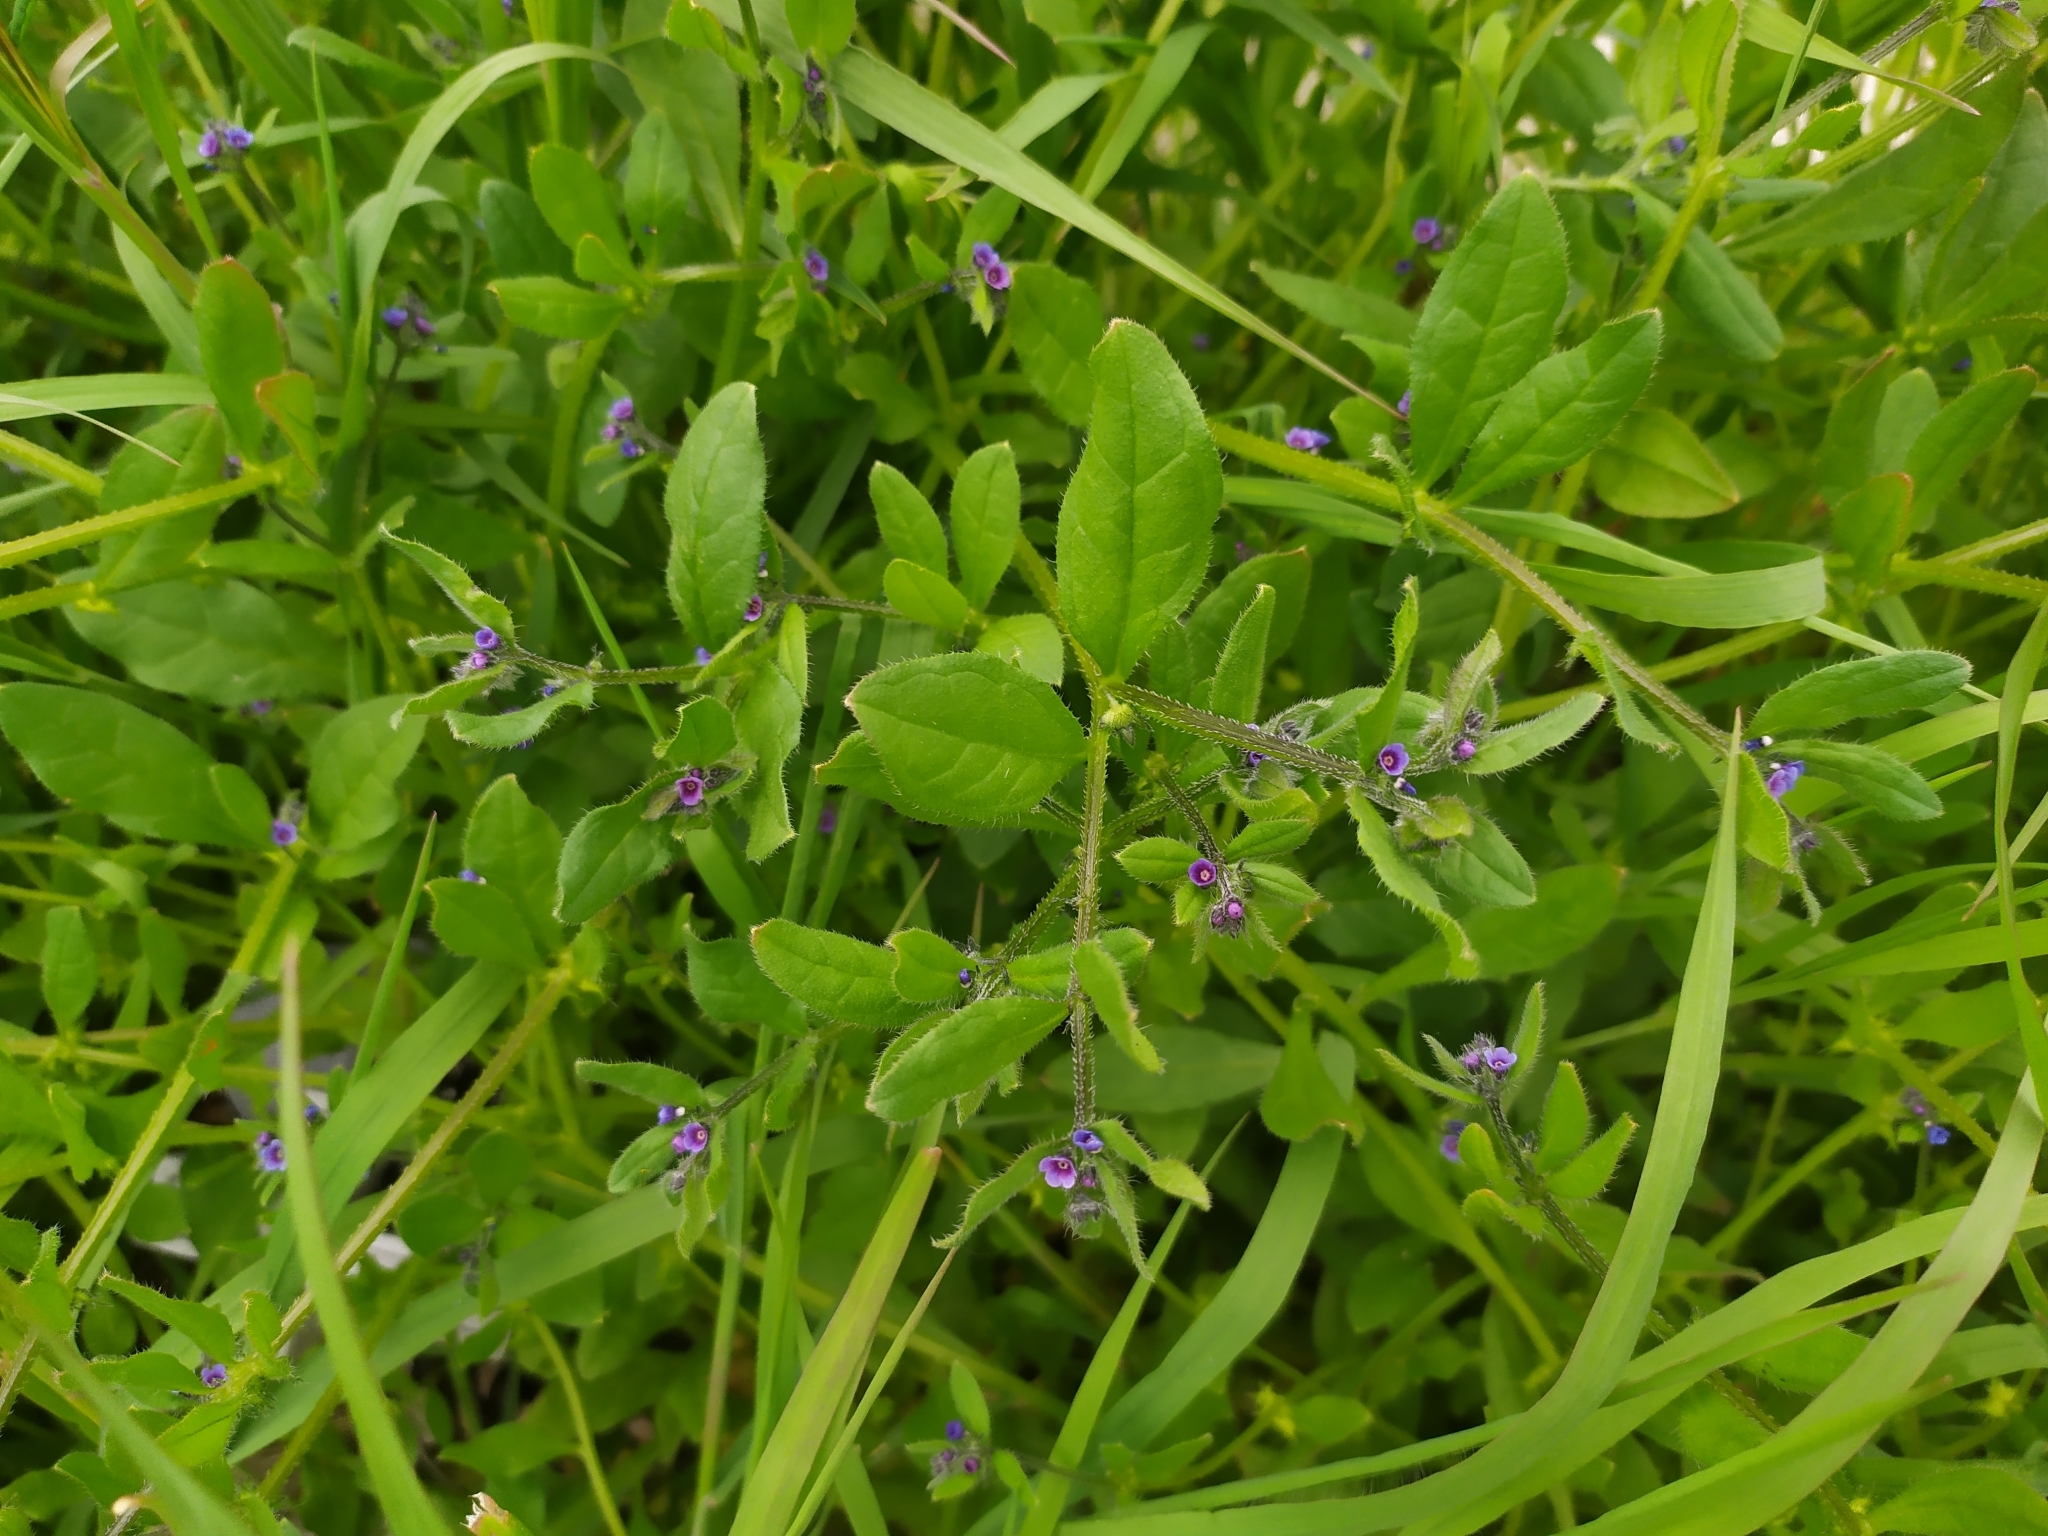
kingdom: Plantae
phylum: Tracheophyta
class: Magnoliopsida
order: Boraginales
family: Boraginaceae
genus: Asperugo
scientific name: Asperugo procumbens
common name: Madwort
